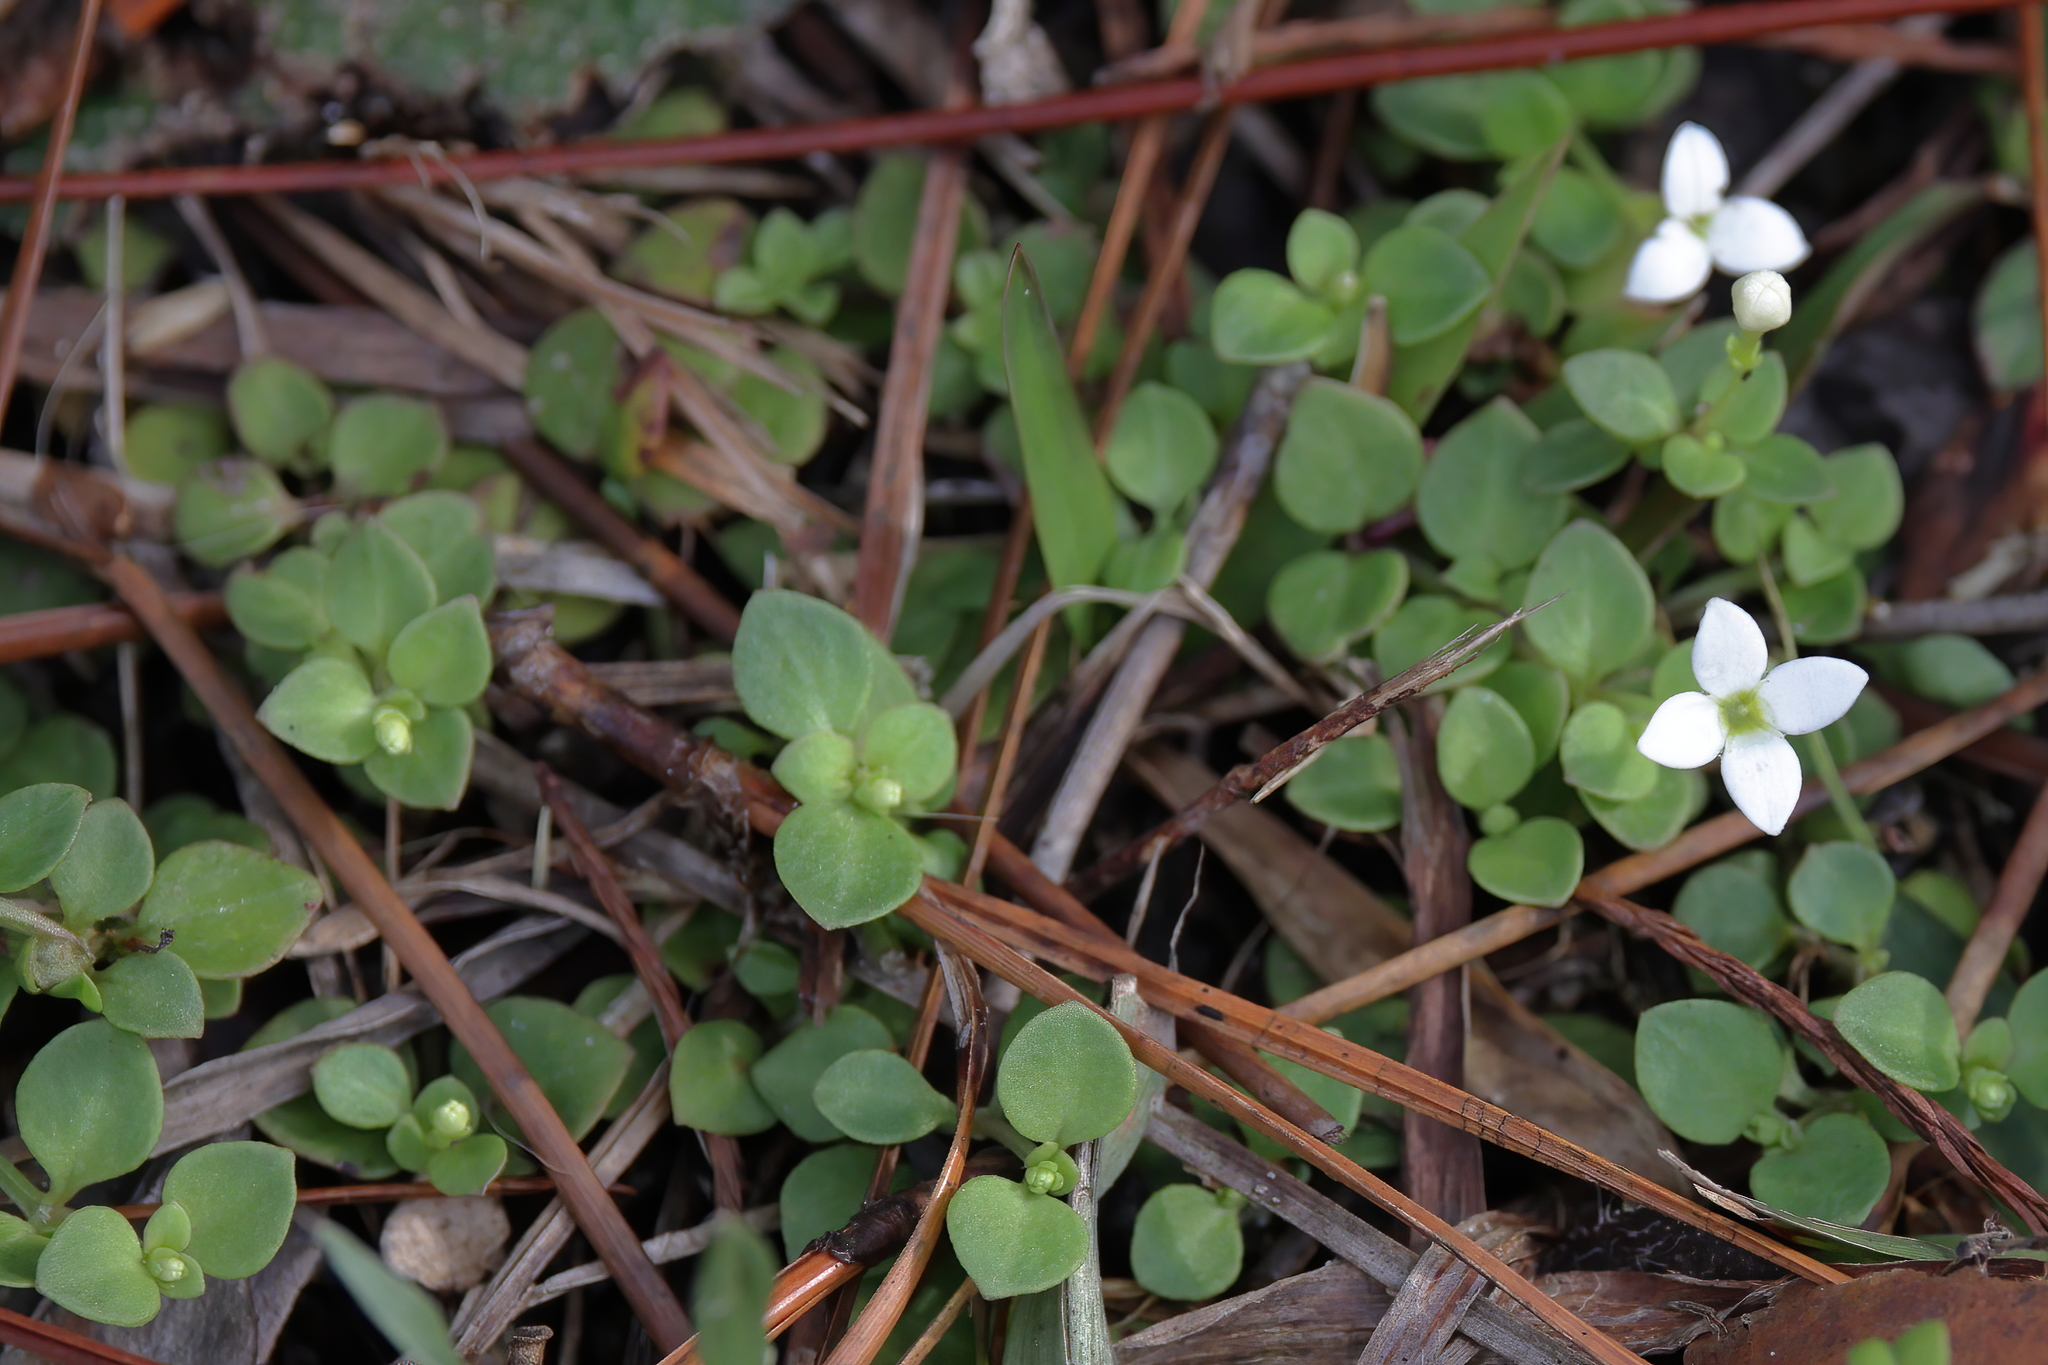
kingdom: Plantae
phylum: Tracheophyta
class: Magnoliopsida
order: Gentianales
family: Rubiaceae
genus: Houstonia
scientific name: Houstonia procumbens
